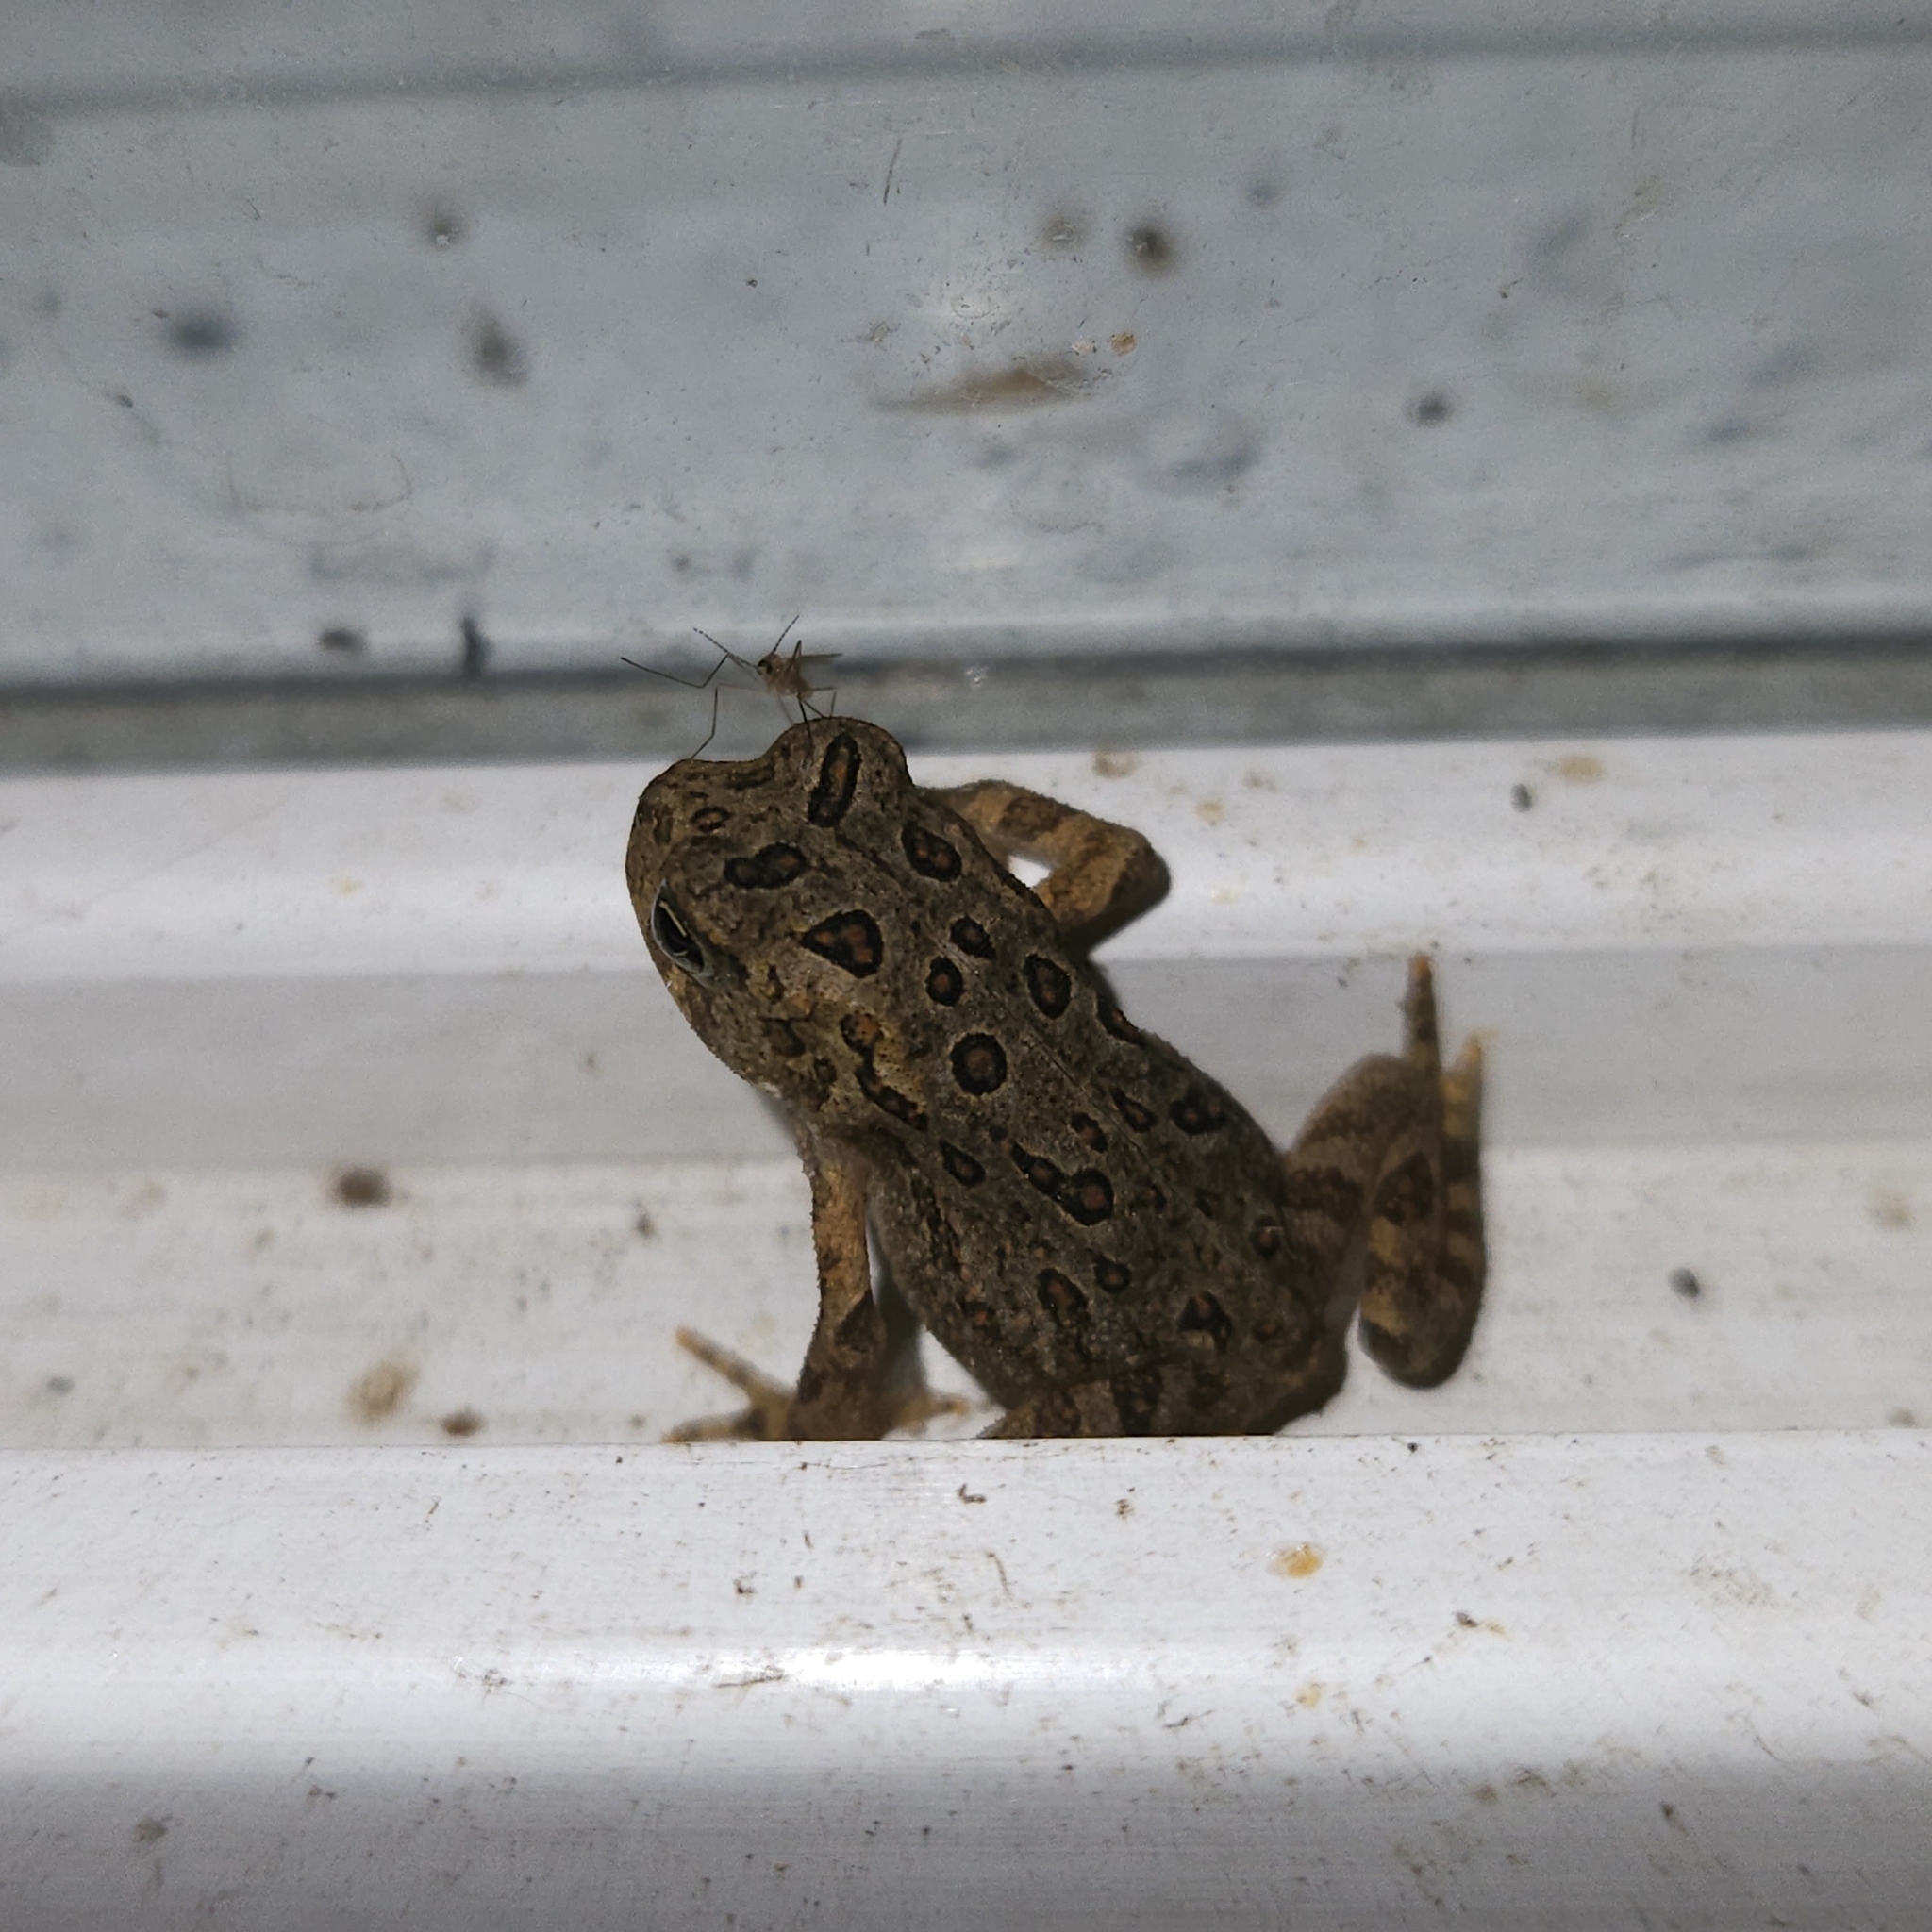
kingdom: Animalia
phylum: Chordata
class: Amphibia
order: Anura
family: Bufonidae
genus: Anaxyrus
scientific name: Anaxyrus americanus
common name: American toad
